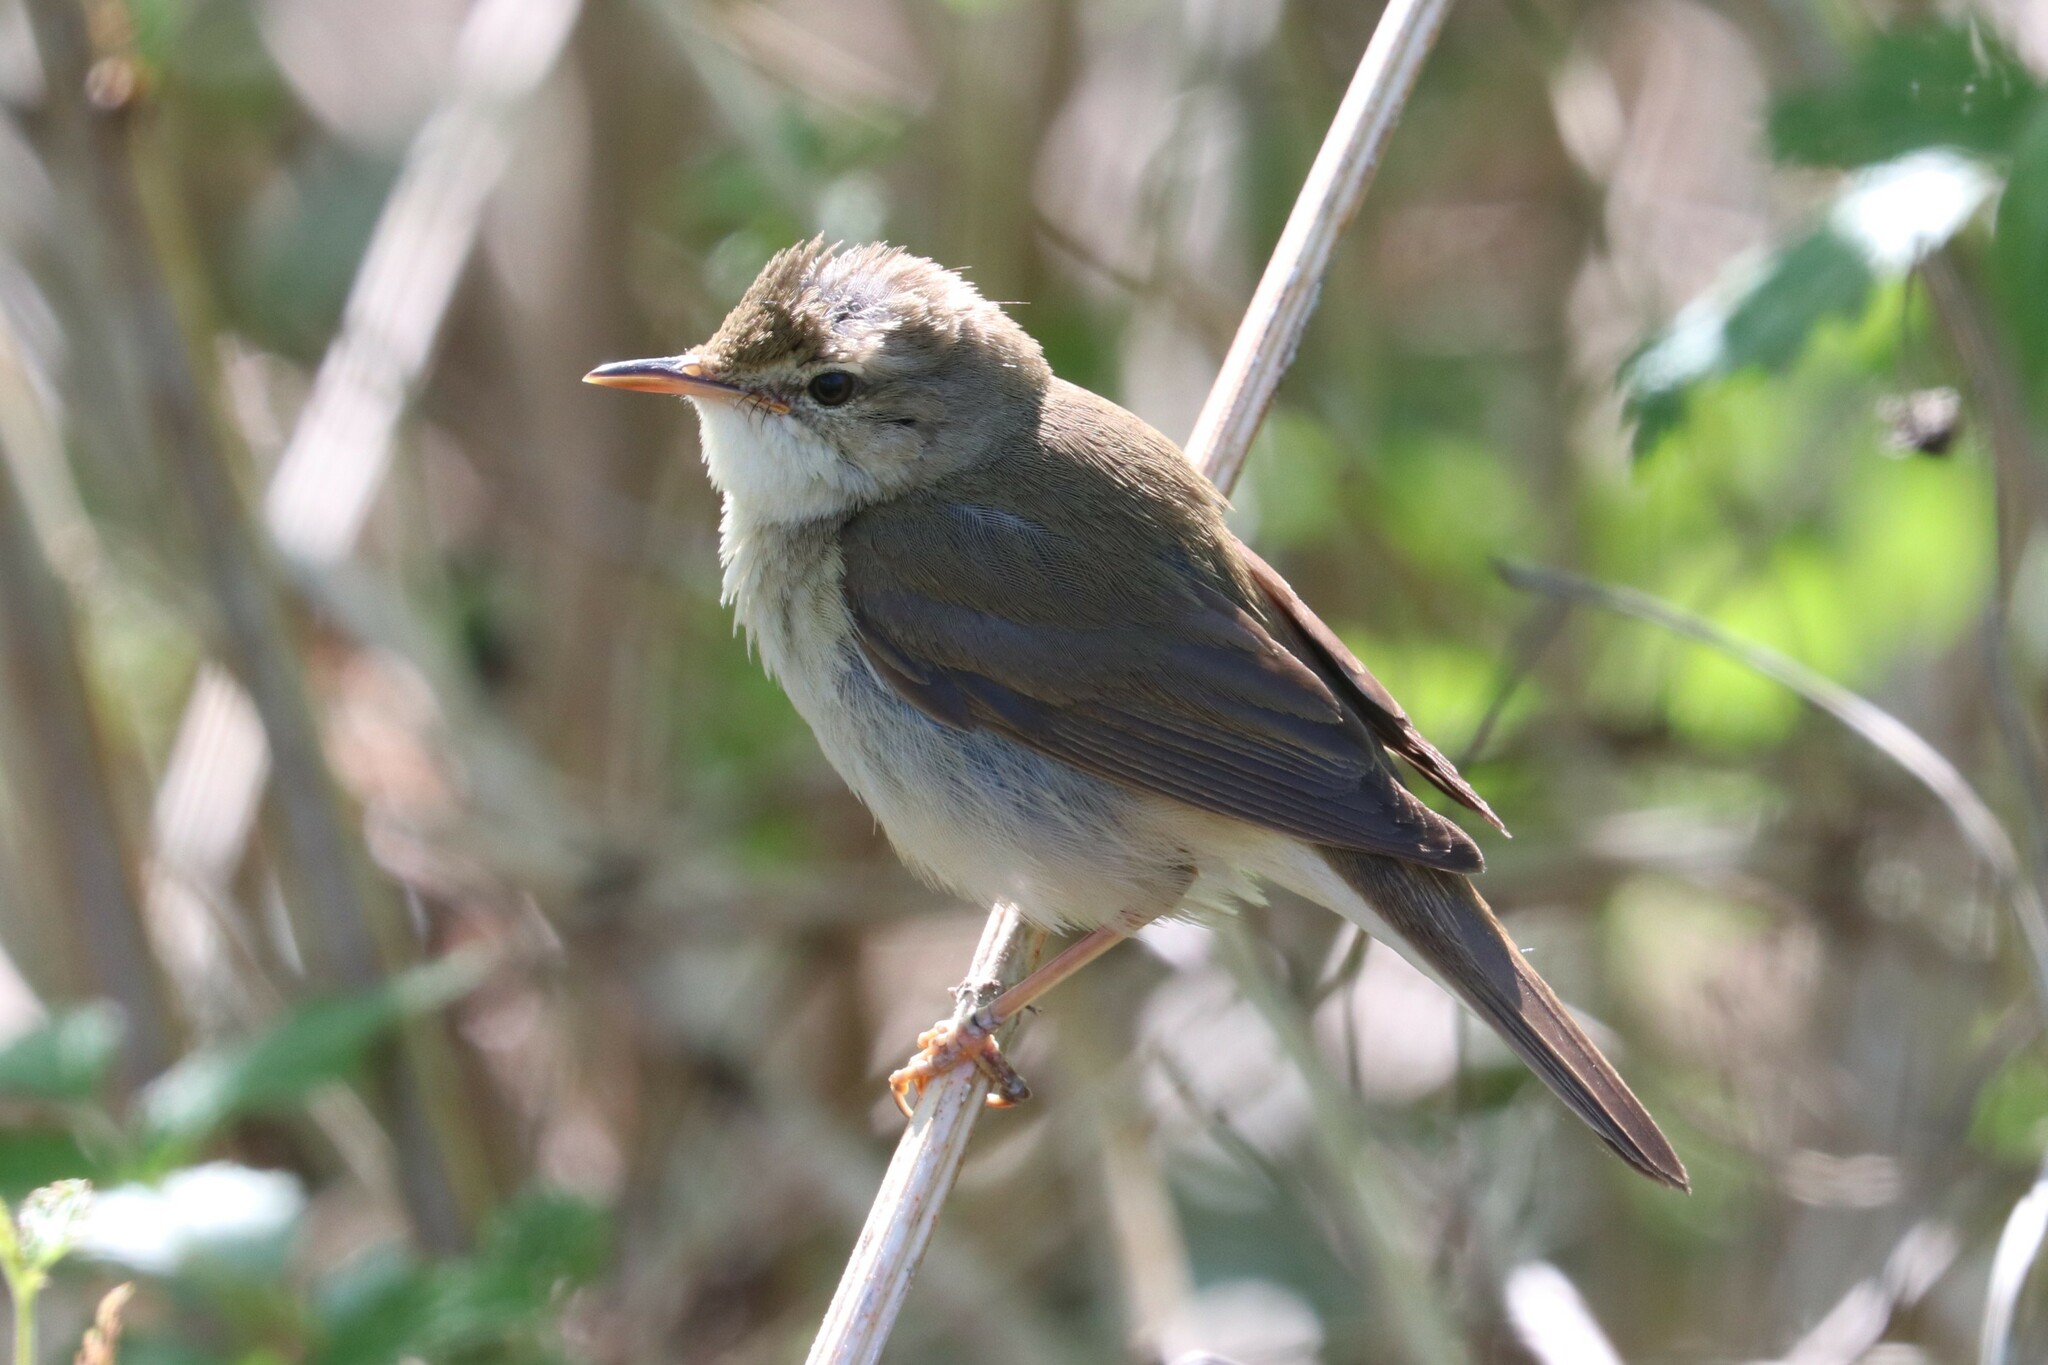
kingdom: Animalia
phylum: Chordata
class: Aves
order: Passeriformes
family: Acrocephalidae
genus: Acrocephalus
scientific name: Acrocephalus dumetorum
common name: Blyth's reed warbler
